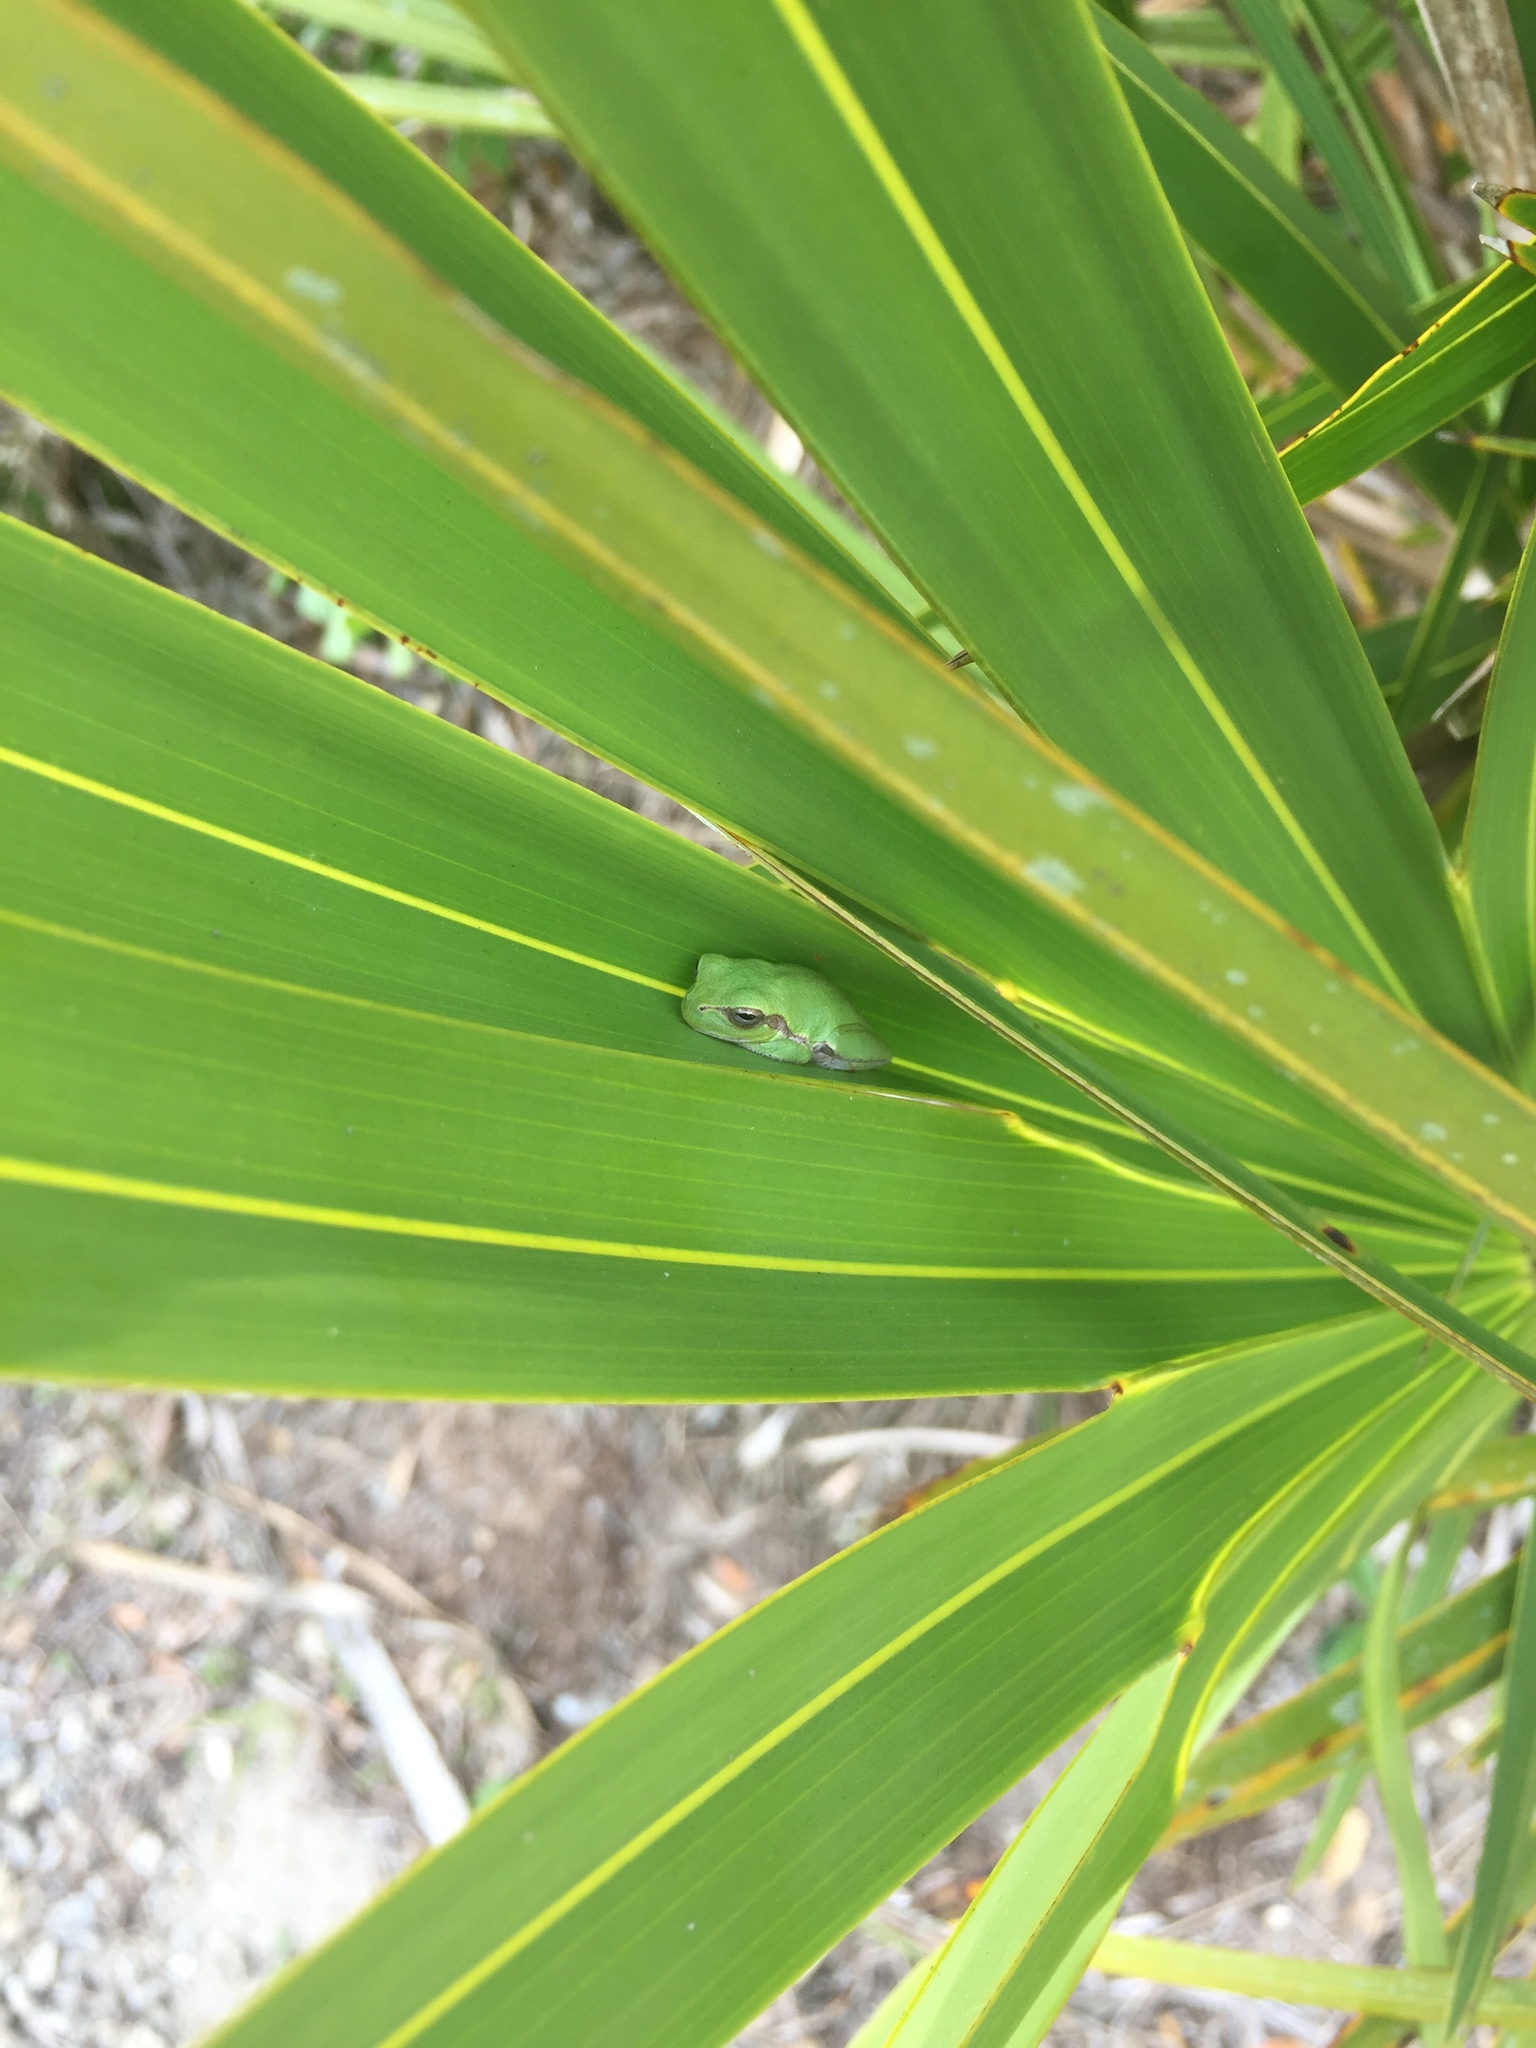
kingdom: Animalia
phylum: Chordata
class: Amphibia
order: Anura
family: Hylidae
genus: Hyla
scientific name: Hyla femoralis
